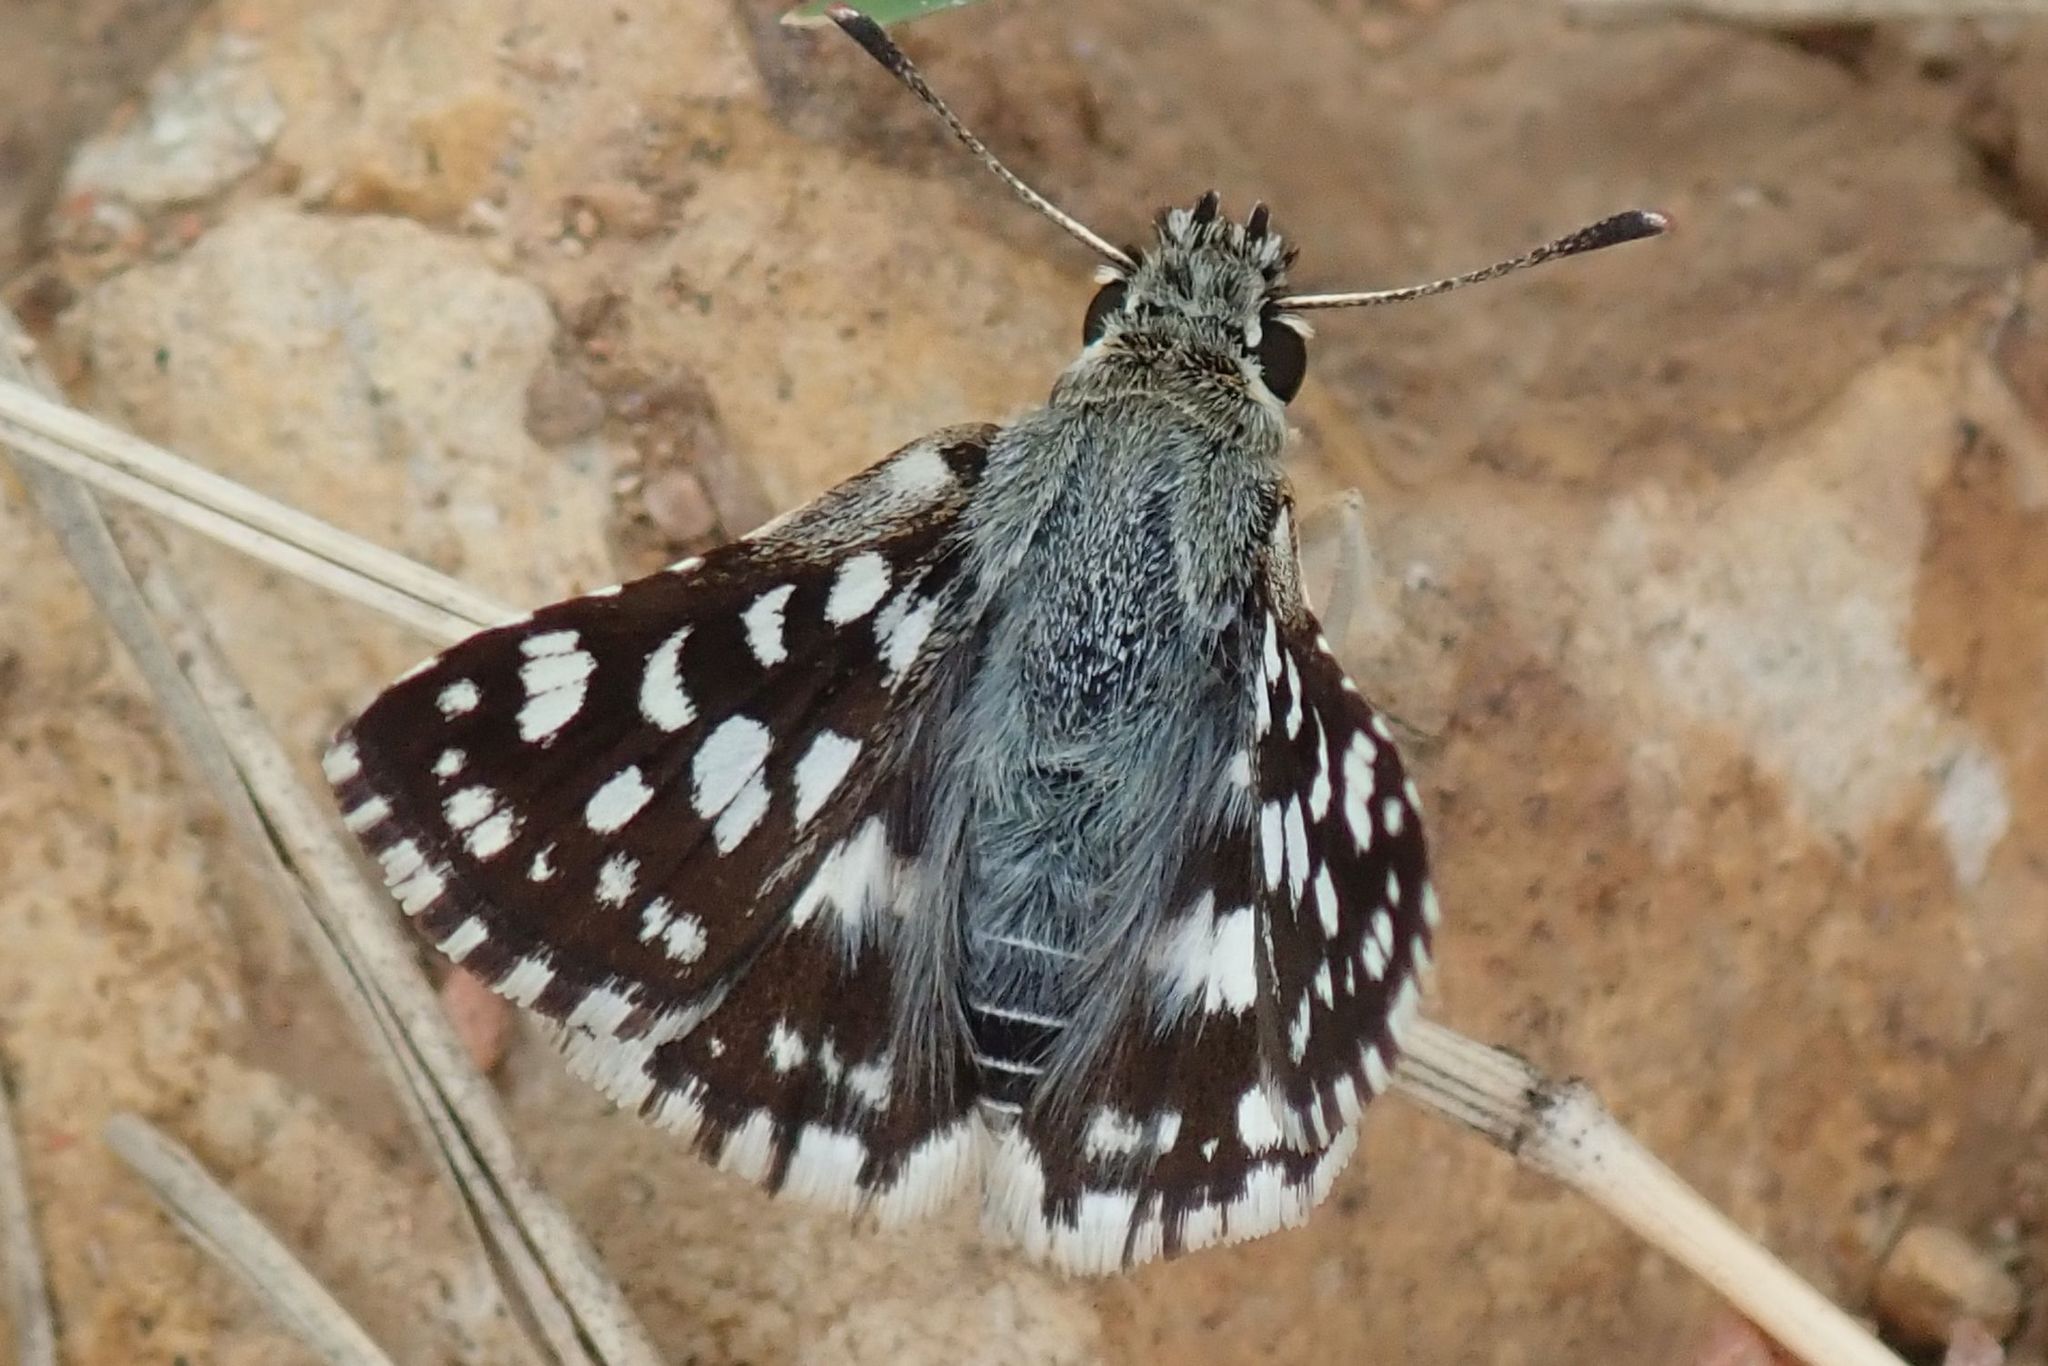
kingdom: Animalia
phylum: Arthropoda
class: Insecta
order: Lepidoptera
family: Hesperiidae
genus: Spialia
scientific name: Spialia spio
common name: Mountain sandman
